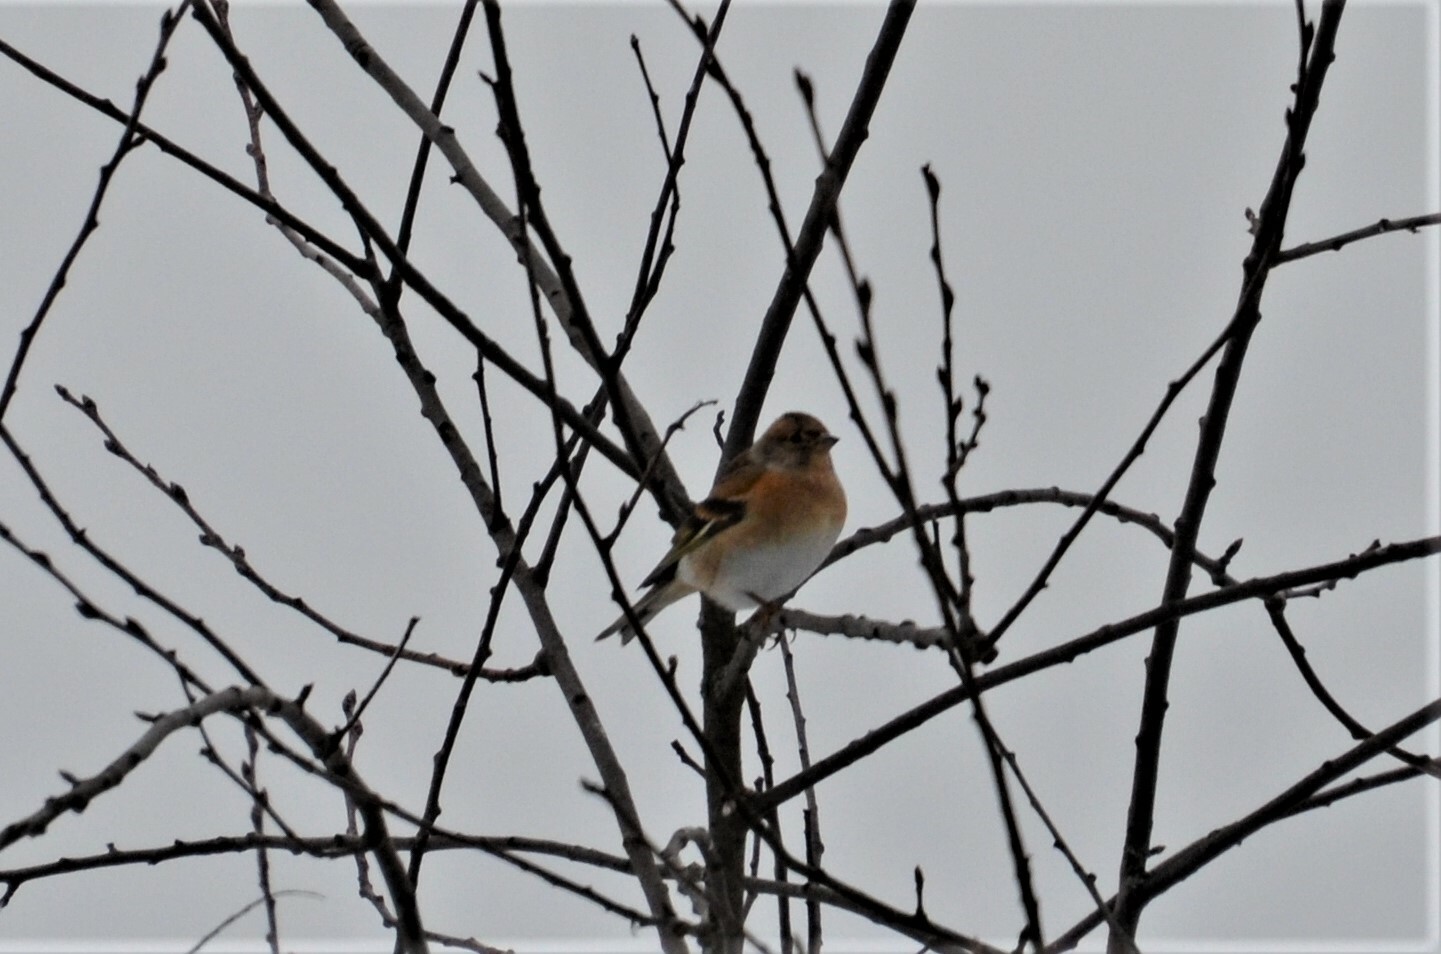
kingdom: Animalia
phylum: Chordata
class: Aves
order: Passeriformes
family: Fringillidae
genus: Fringilla
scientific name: Fringilla montifringilla
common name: Brambling
